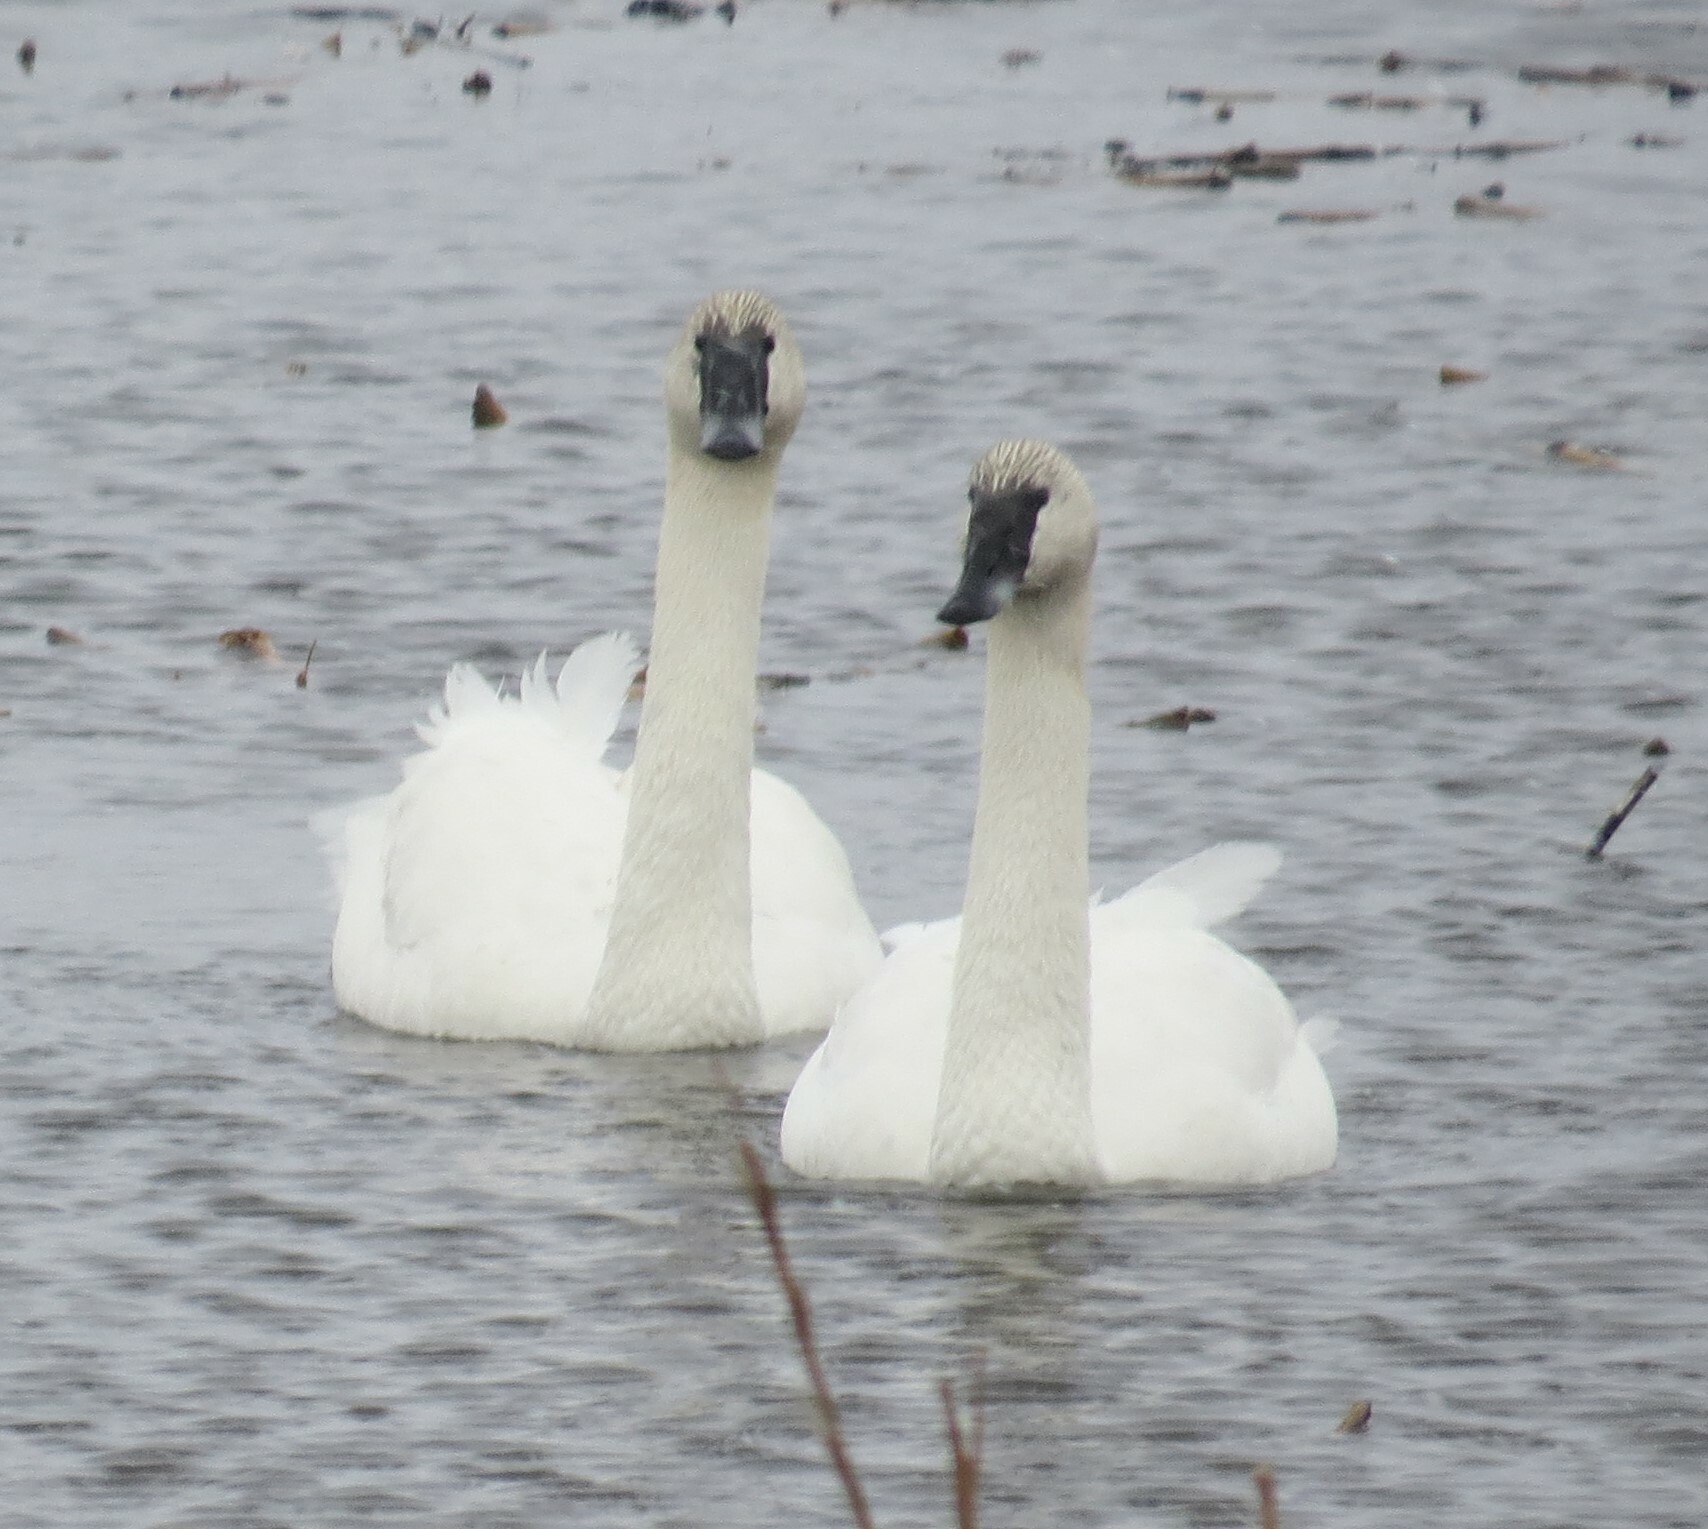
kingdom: Animalia
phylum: Chordata
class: Aves
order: Anseriformes
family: Anatidae
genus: Cygnus
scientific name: Cygnus buccinator
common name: Trumpeter swan
